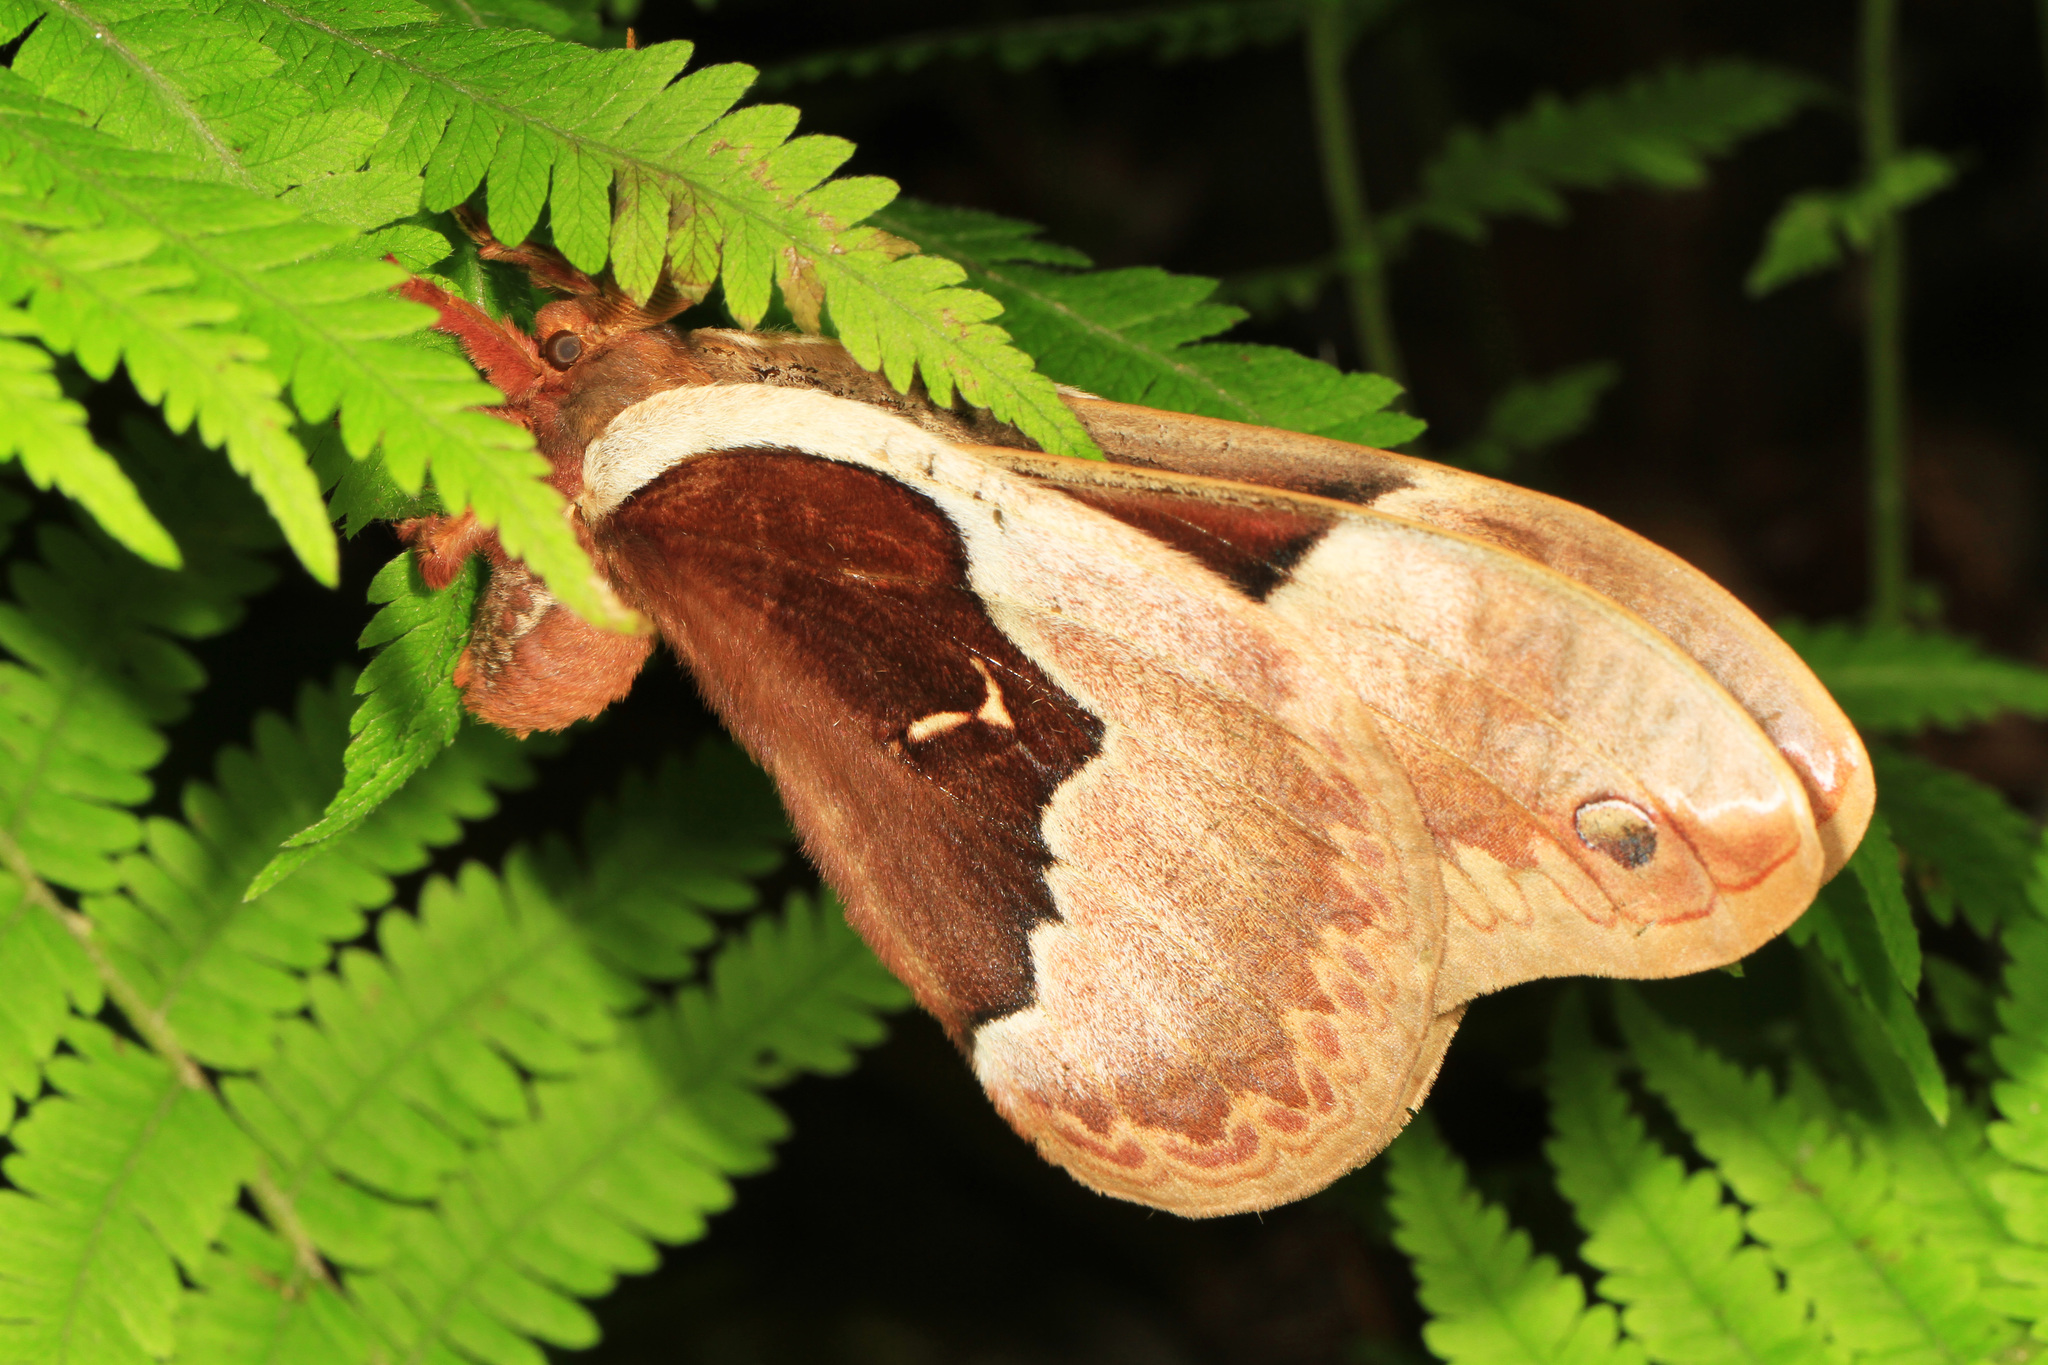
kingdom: Animalia
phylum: Arthropoda
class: Insecta
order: Lepidoptera
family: Saturniidae
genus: Callosamia
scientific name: Callosamia angulifera
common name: Tulip tree silkmoth
